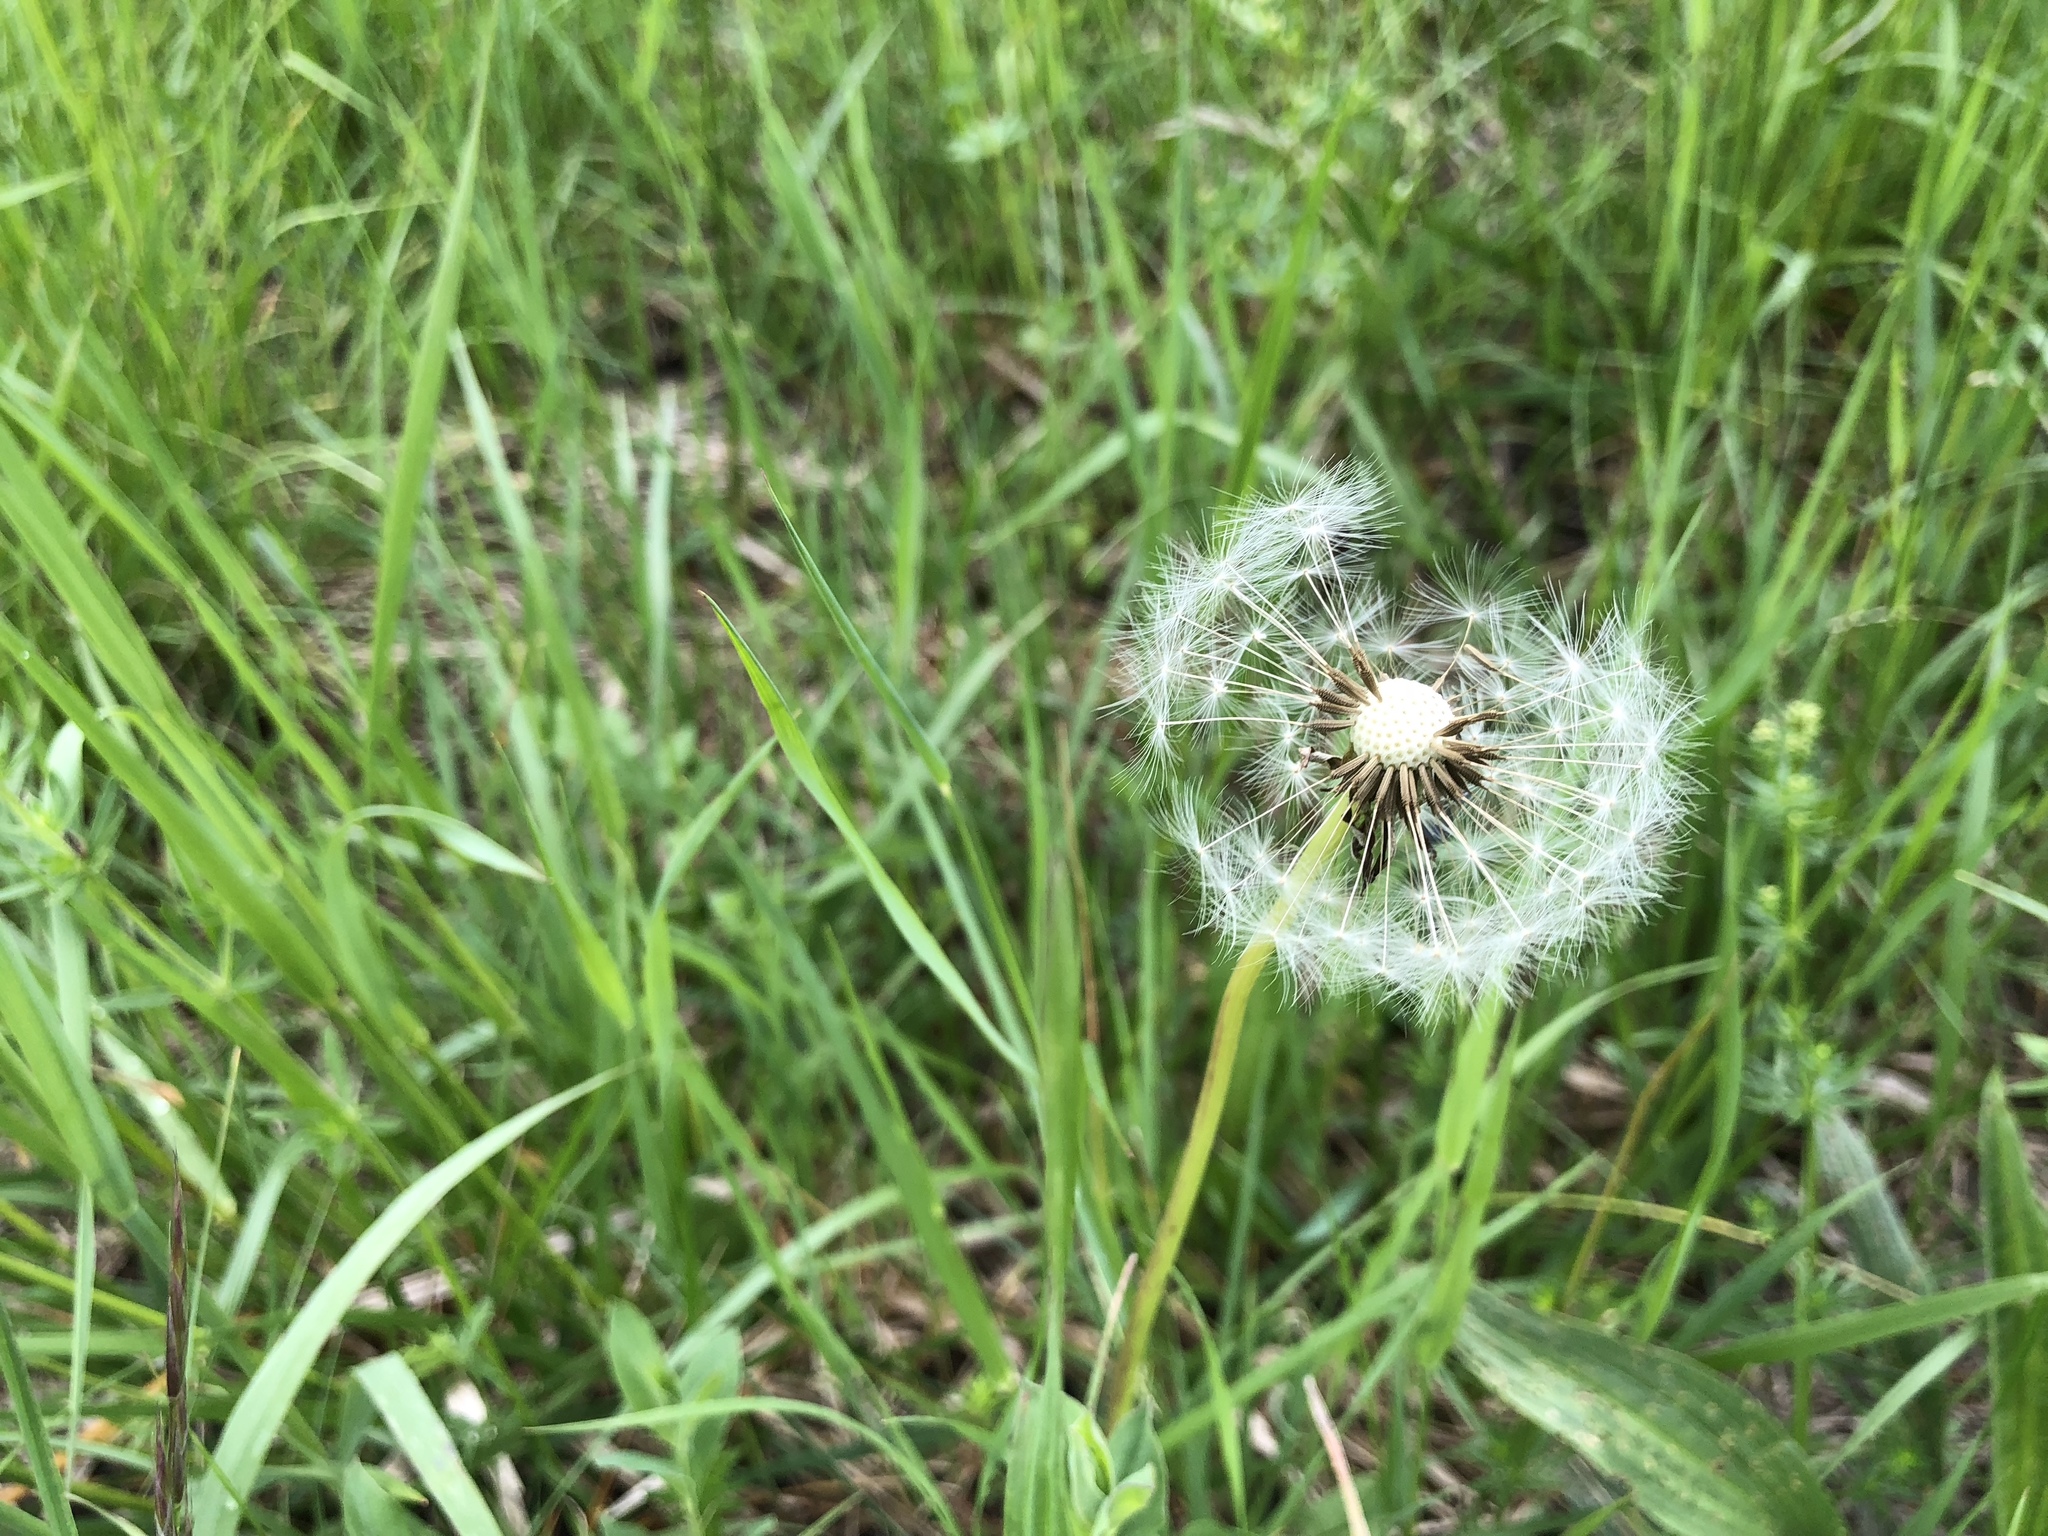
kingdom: Plantae
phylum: Tracheophyta
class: Magnoliopsida
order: Asterales
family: Asteraceae
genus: Taraxacum
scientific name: Taraxacum officinale
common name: Common dandelion
